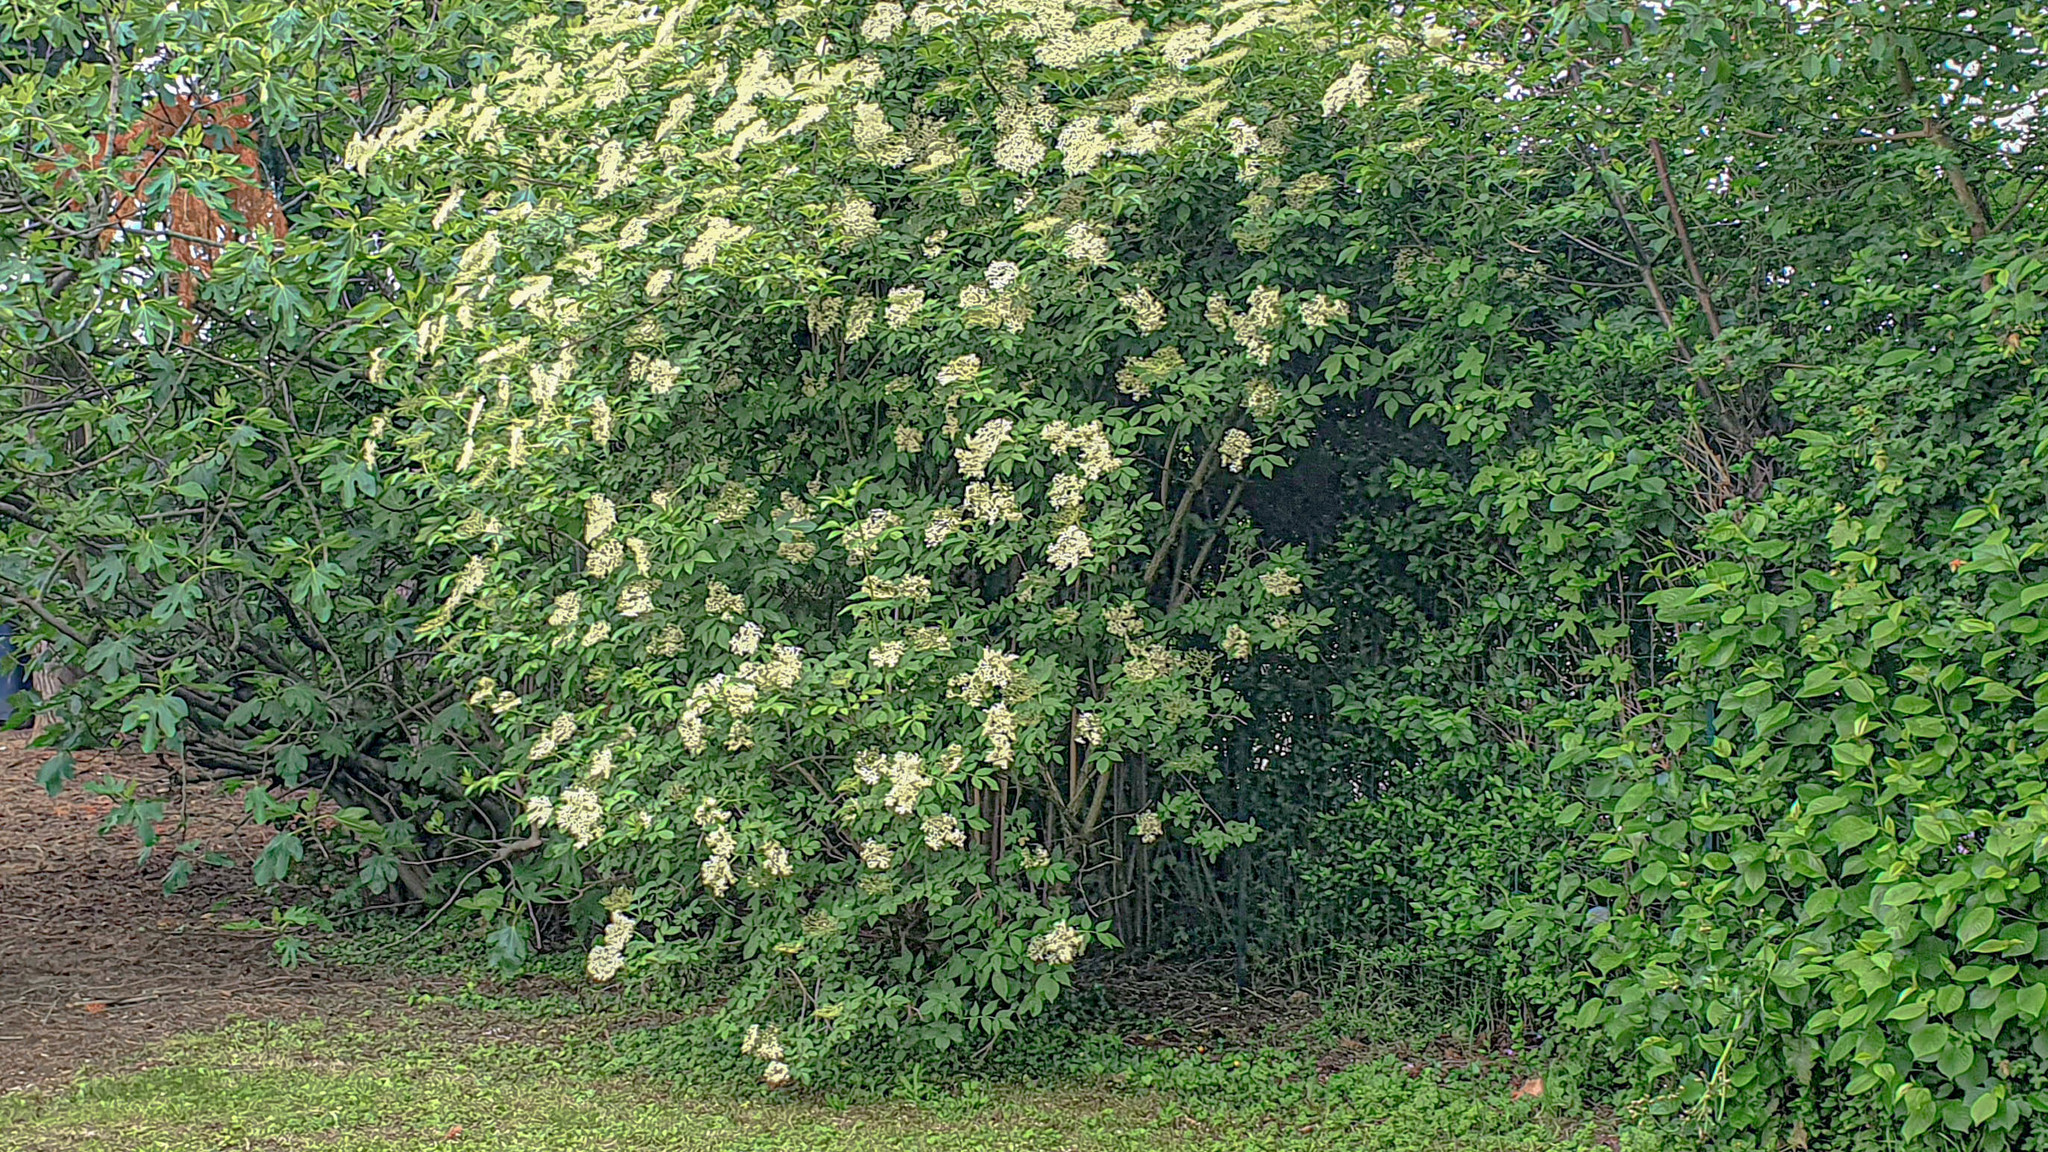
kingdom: Plantae
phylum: Tracheophyta
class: Magnoliopsida
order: Dipsacales
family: Viburnaceae
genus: Sambucus
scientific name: Sambucus nigra
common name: Elder
